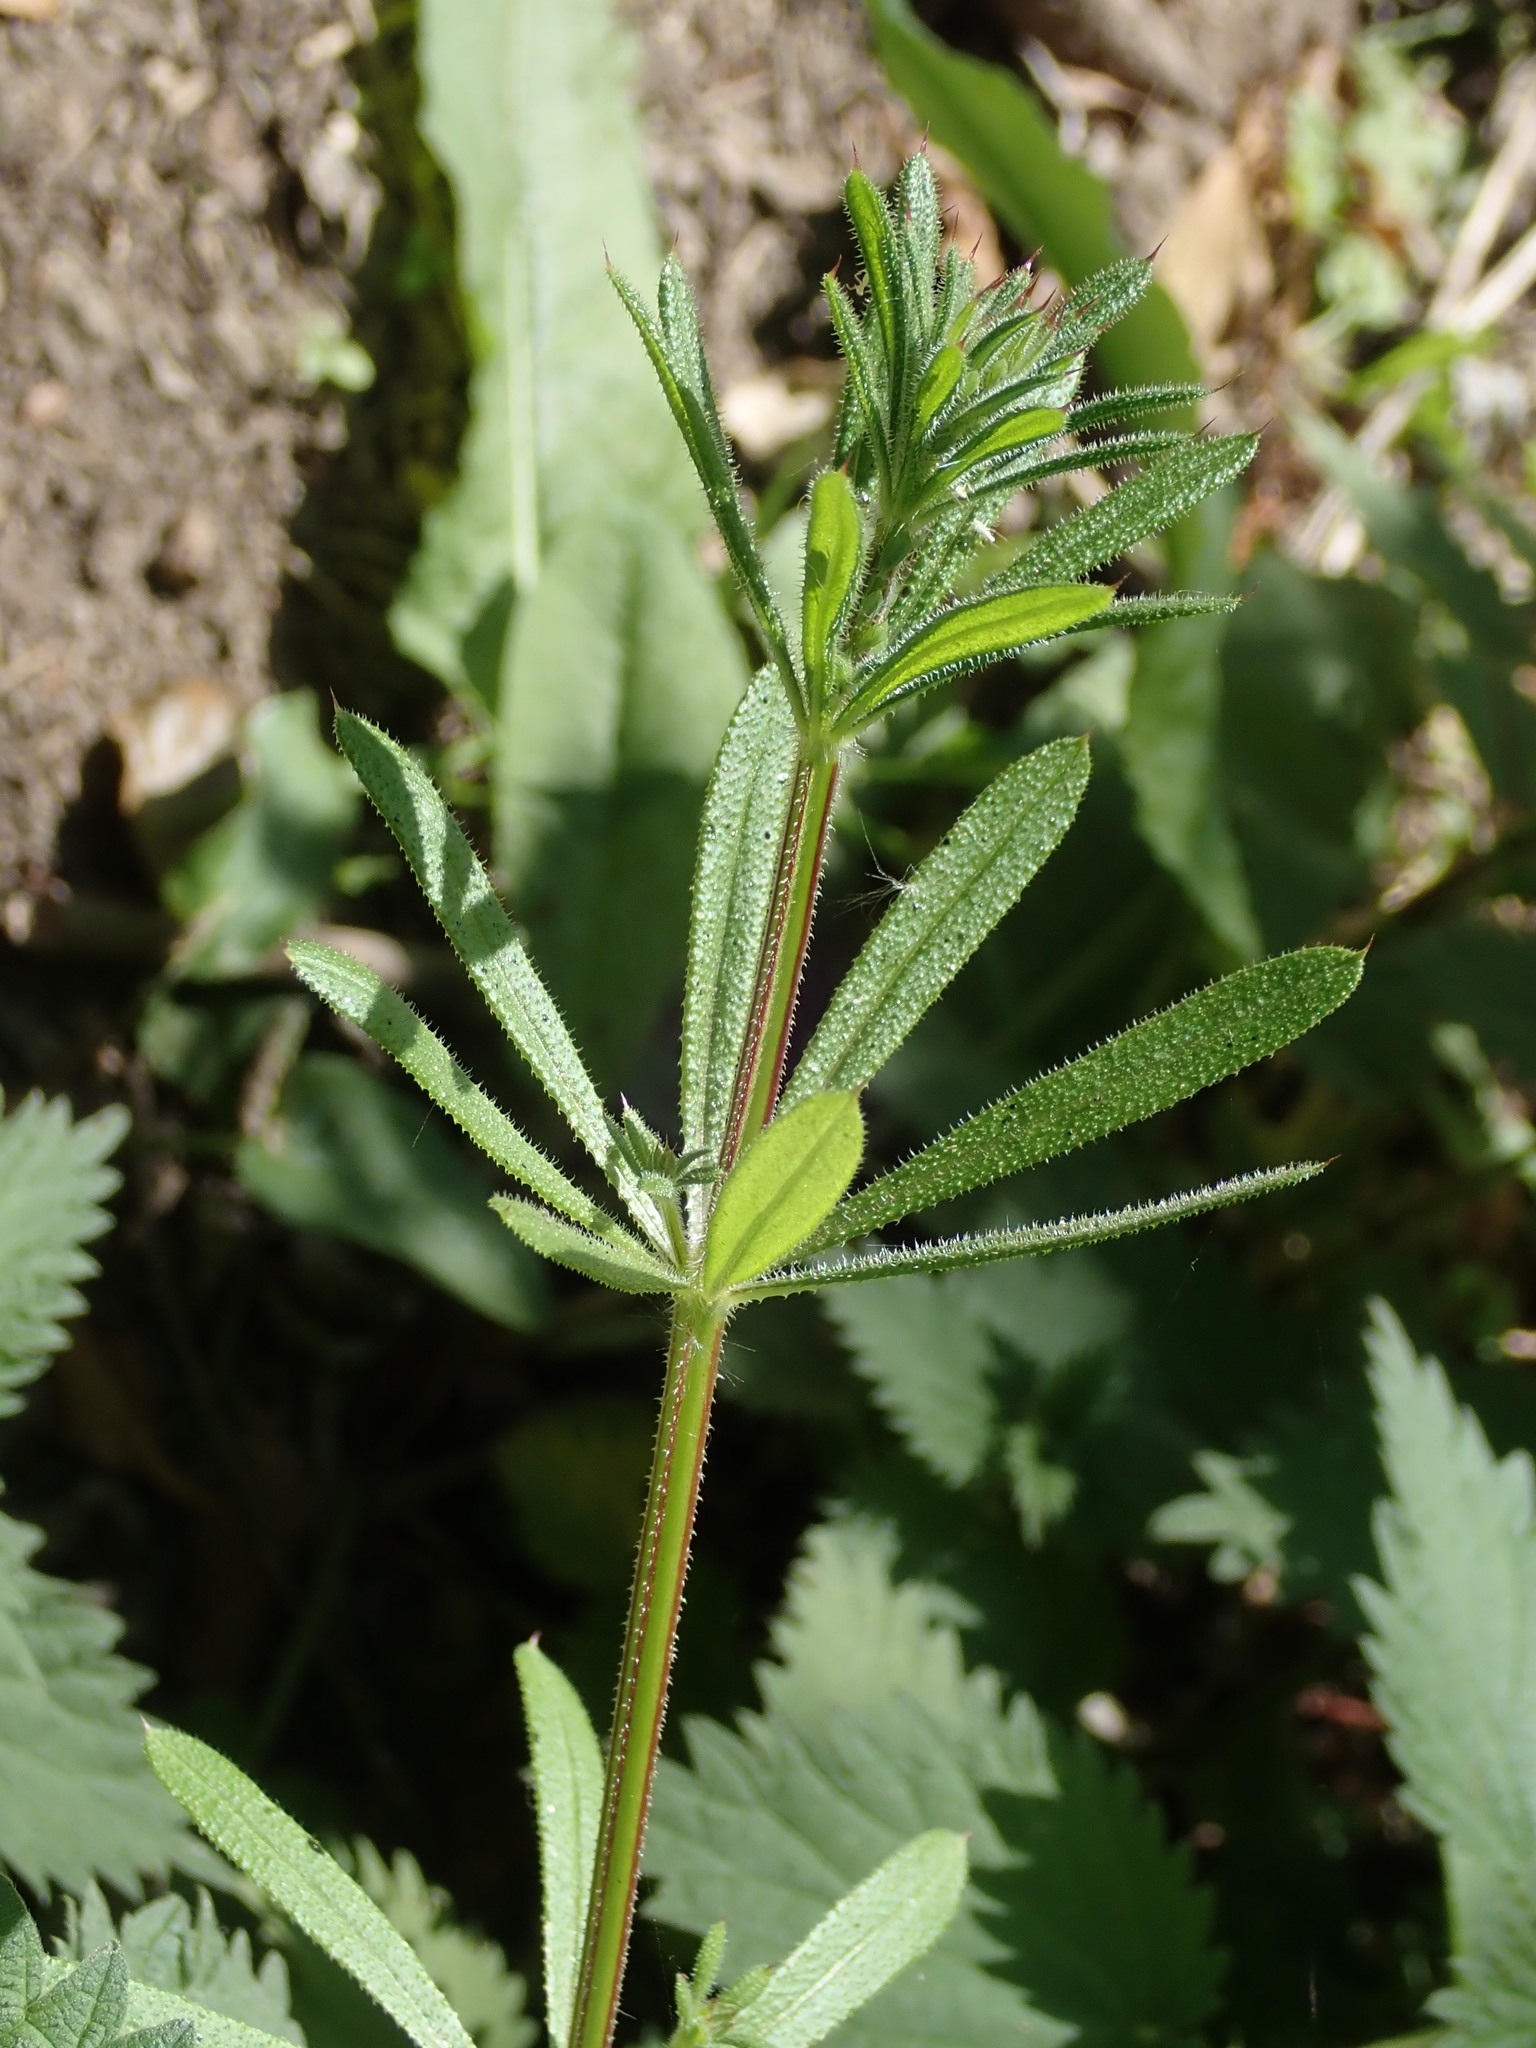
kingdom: Plantae
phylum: Tracheophyta
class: Magnoliopsida
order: Gentianales
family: Rubiaceae
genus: Galium
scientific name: Galium aparine
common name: Cleavers
